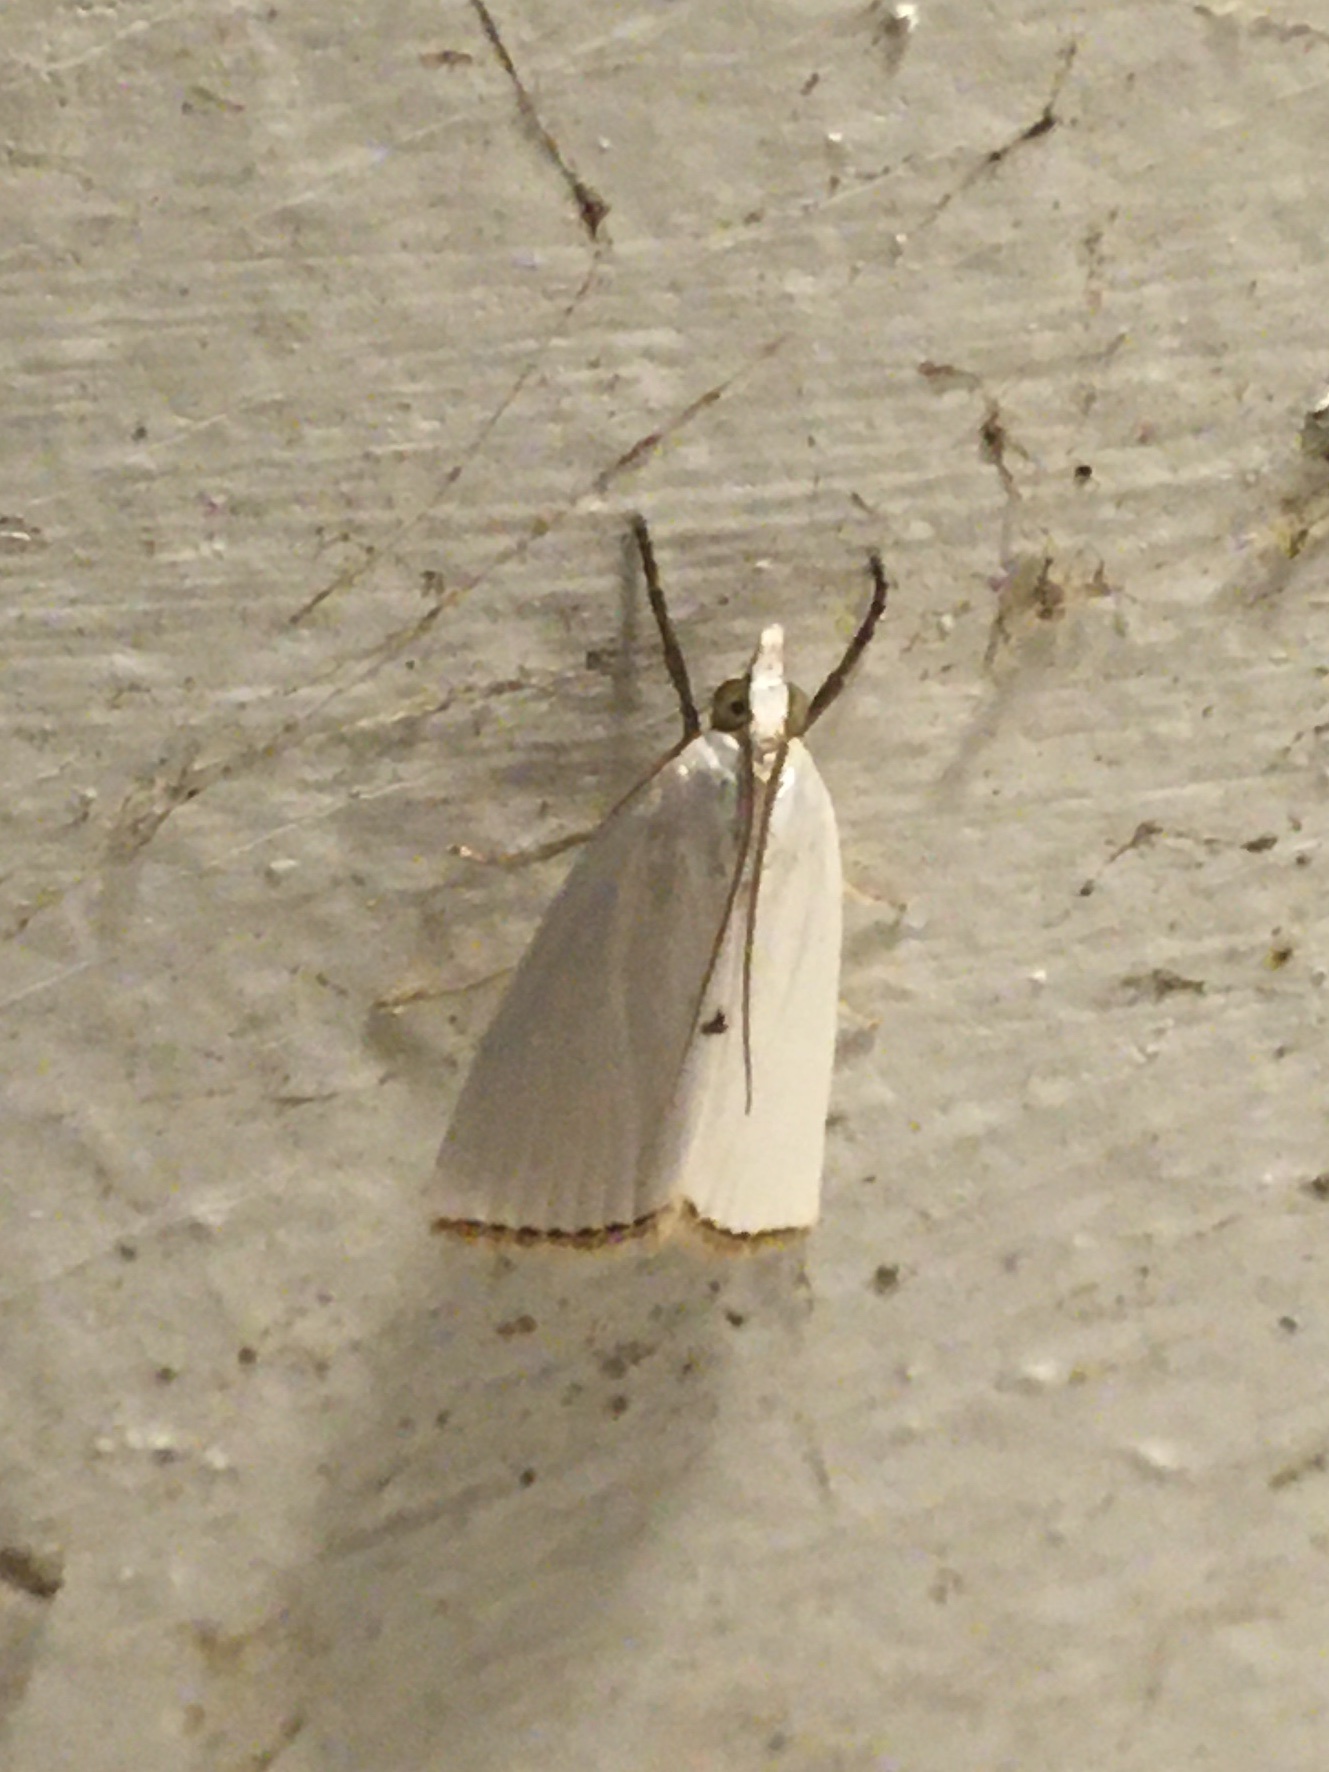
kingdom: Animalia
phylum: Arthropoda
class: Insecta
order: Lepidoptera
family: Crambidae
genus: Argyria
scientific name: Argyria nivalis
